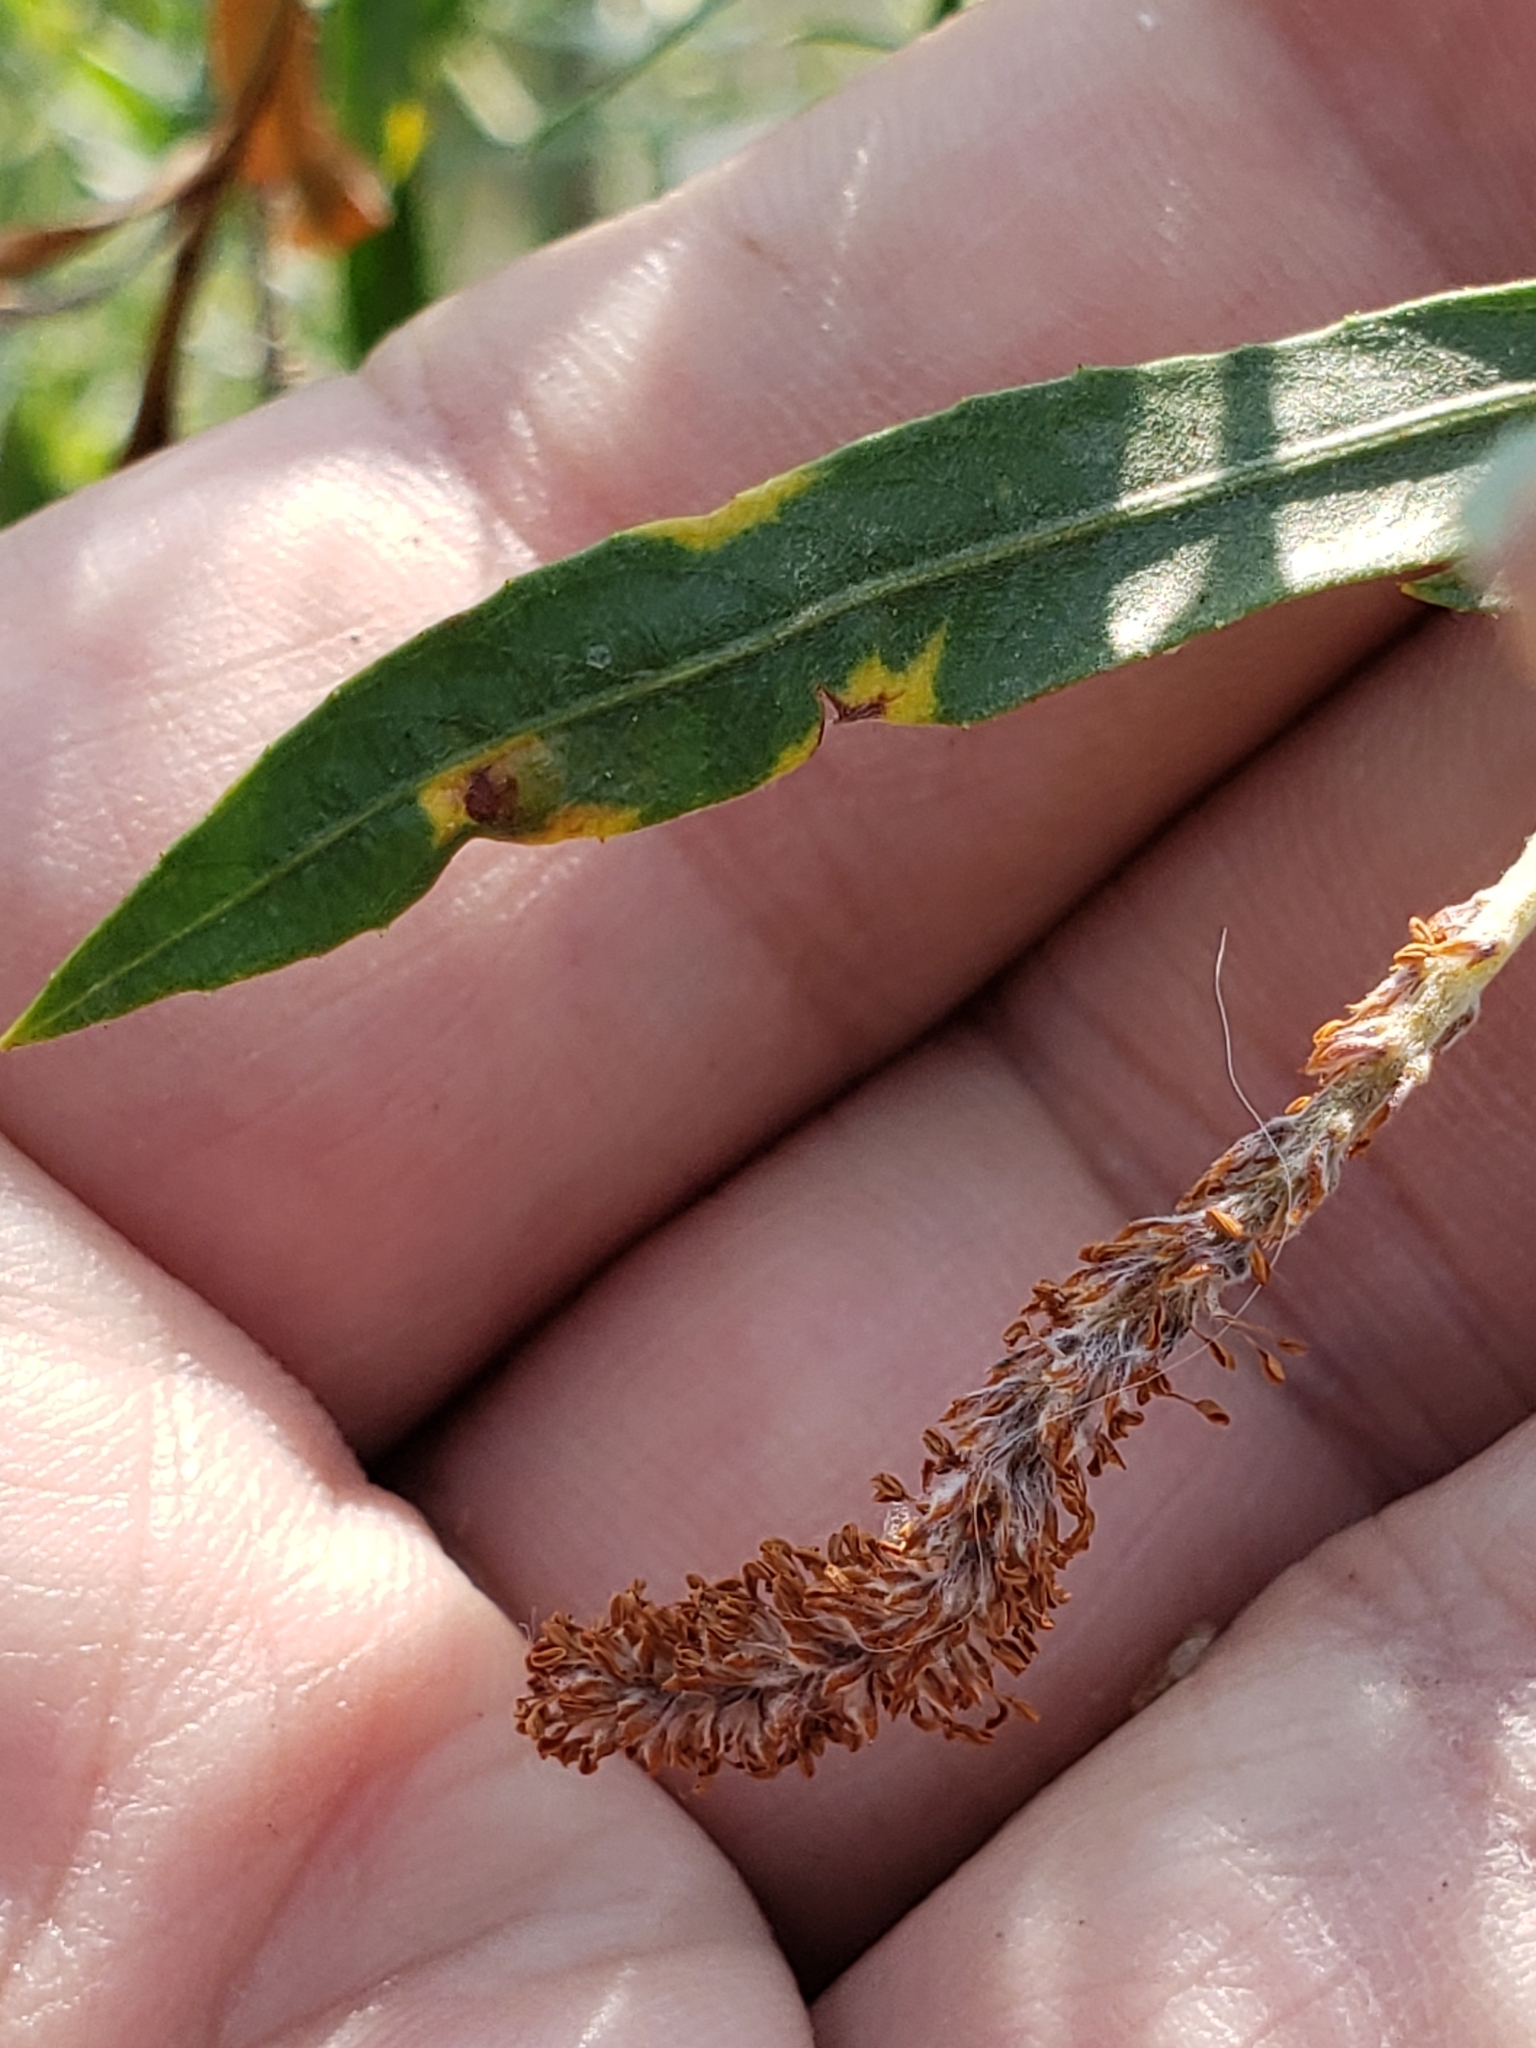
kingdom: Plantae
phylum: Tracheophyta
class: Magnoliopsida
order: Malpighiales
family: Salicaceae
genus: Salix
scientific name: Salix interior
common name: Sandbar willow
